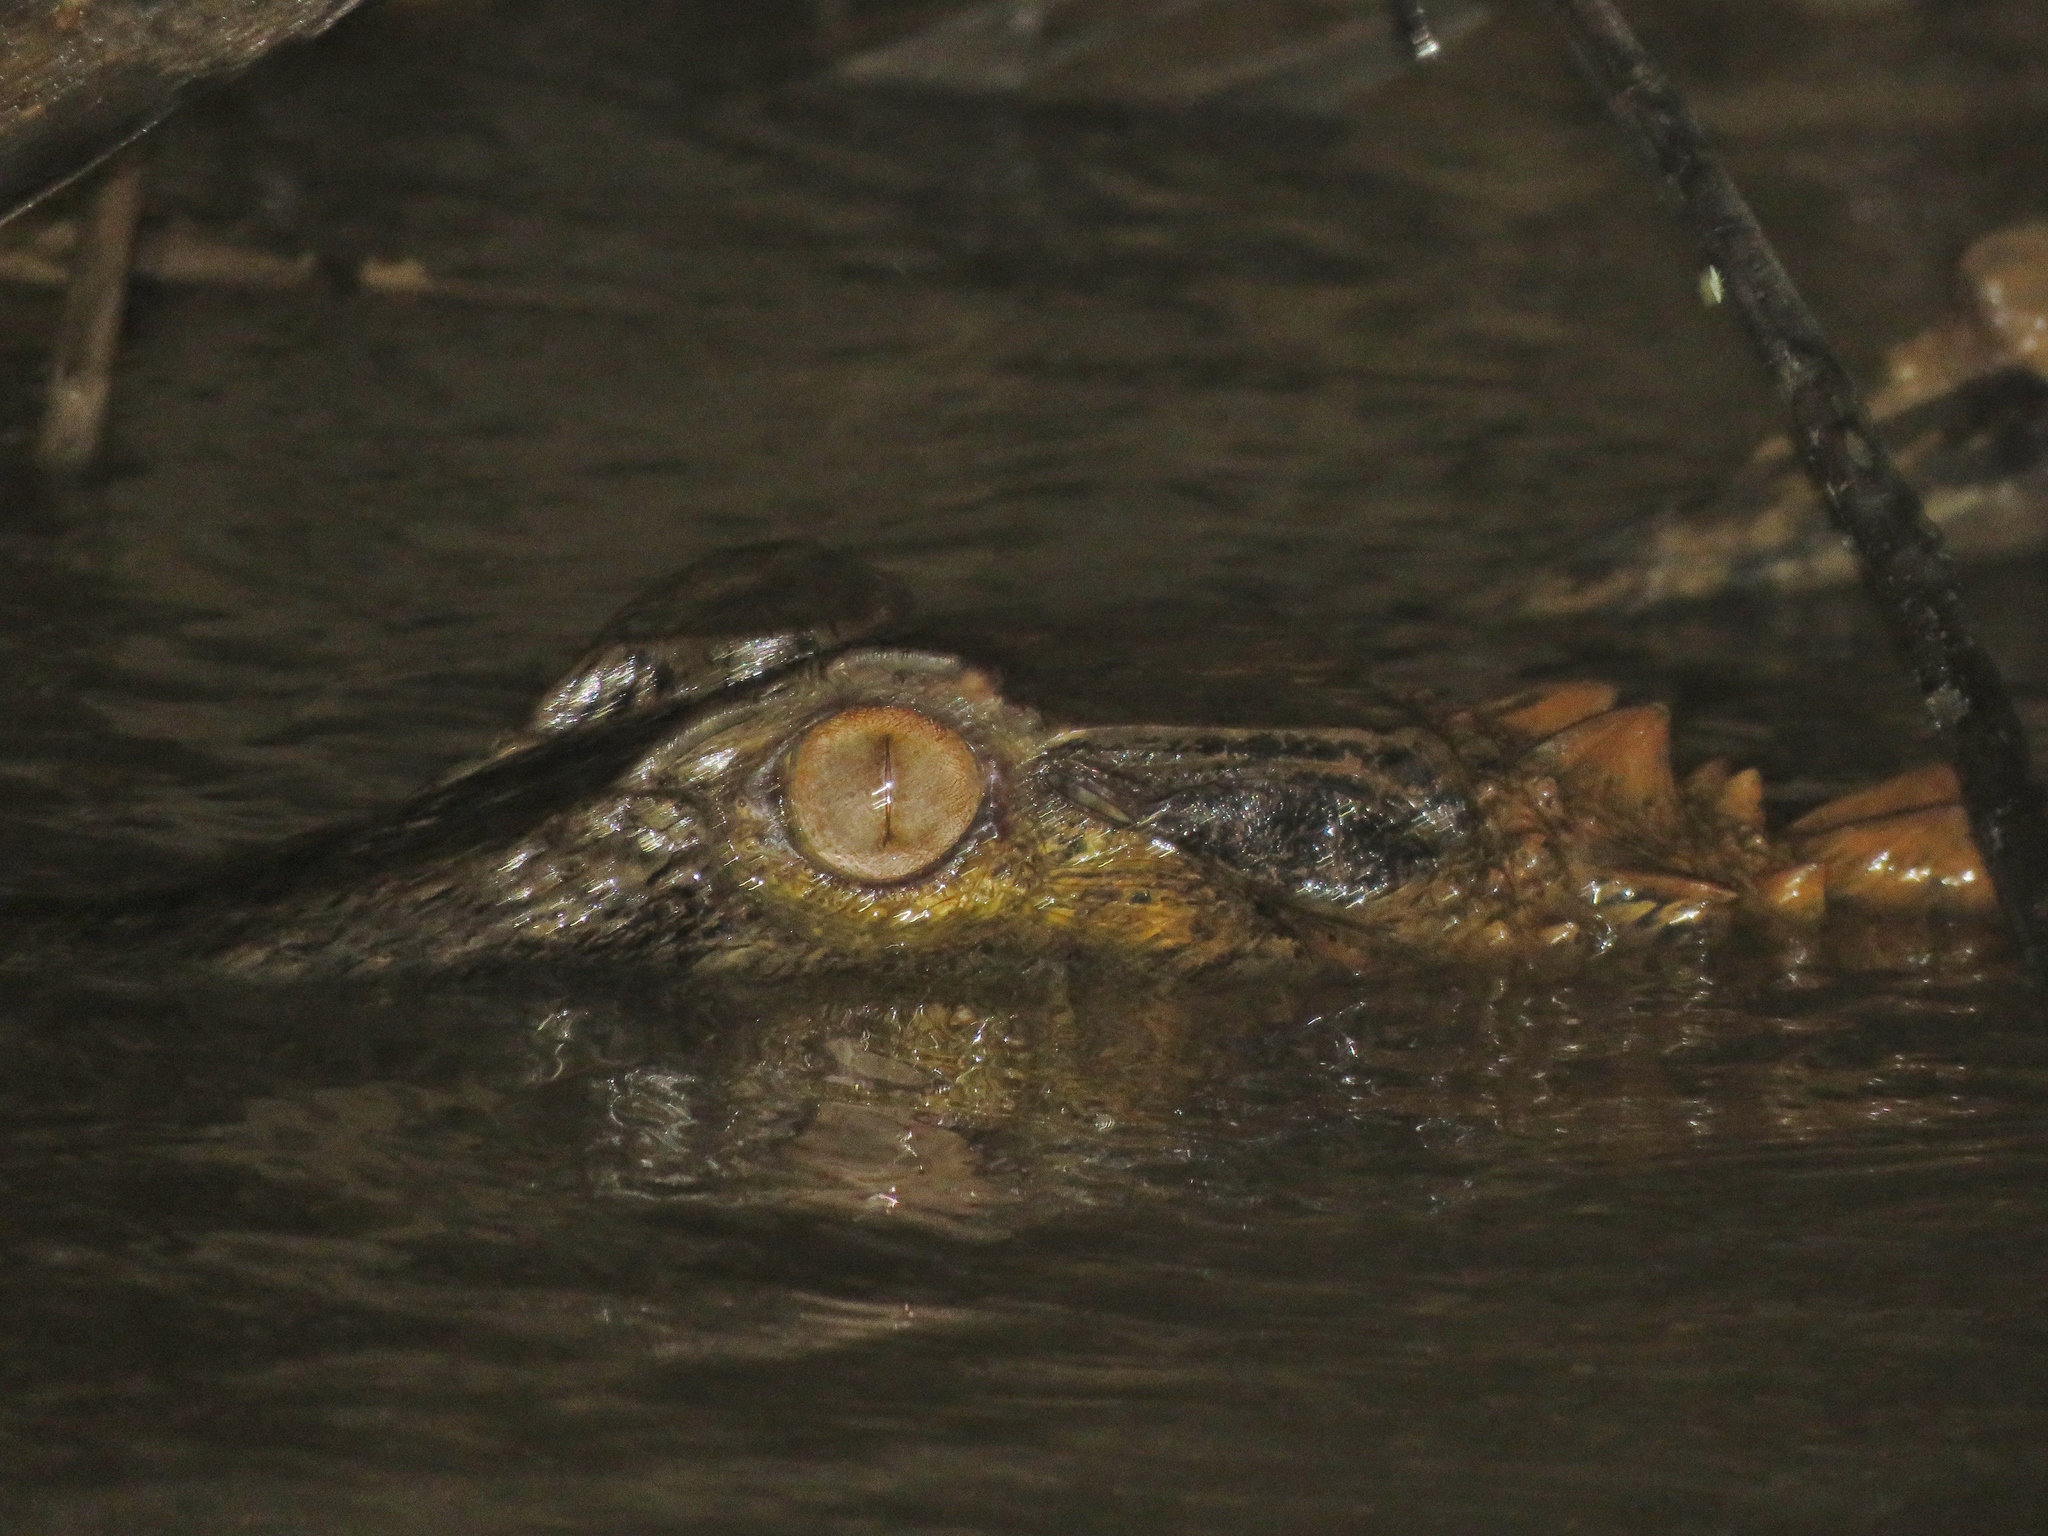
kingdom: Animalia
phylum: Chordata
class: Crocodylia
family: Alligatoridae
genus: Paleosuchus
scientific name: Paleosuchus trigonatus
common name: Schneider's smooth-fronted caiman
